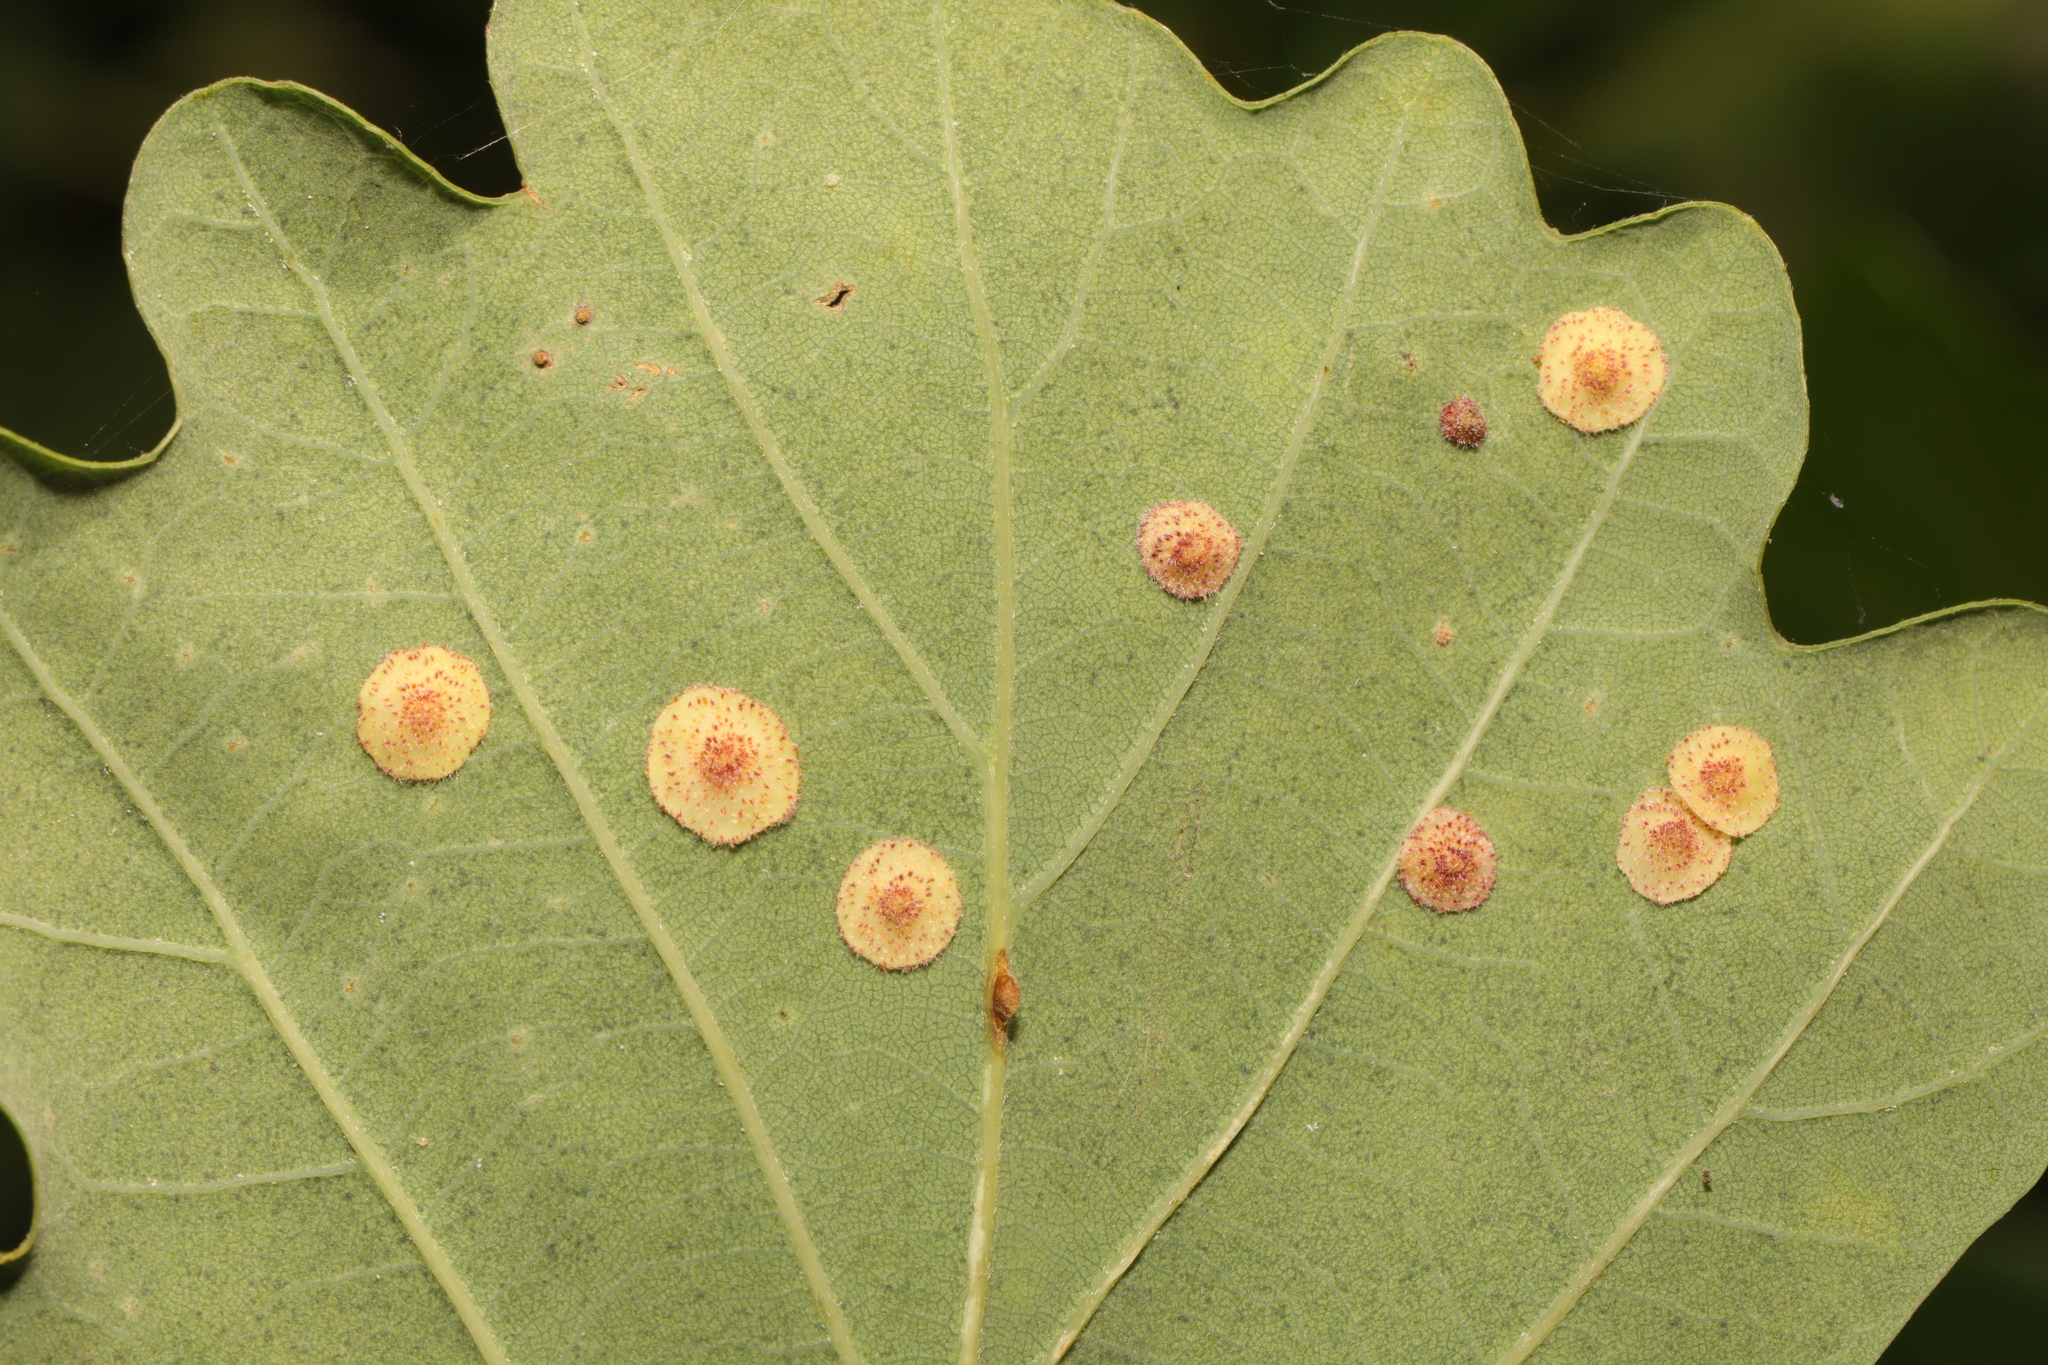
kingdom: Animalia
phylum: Arthropoda
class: Insecta
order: Hymenoptera
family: Cynipidae
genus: Neuroterus
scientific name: Neuroterus quercusbaccarum
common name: Common spangle gall
